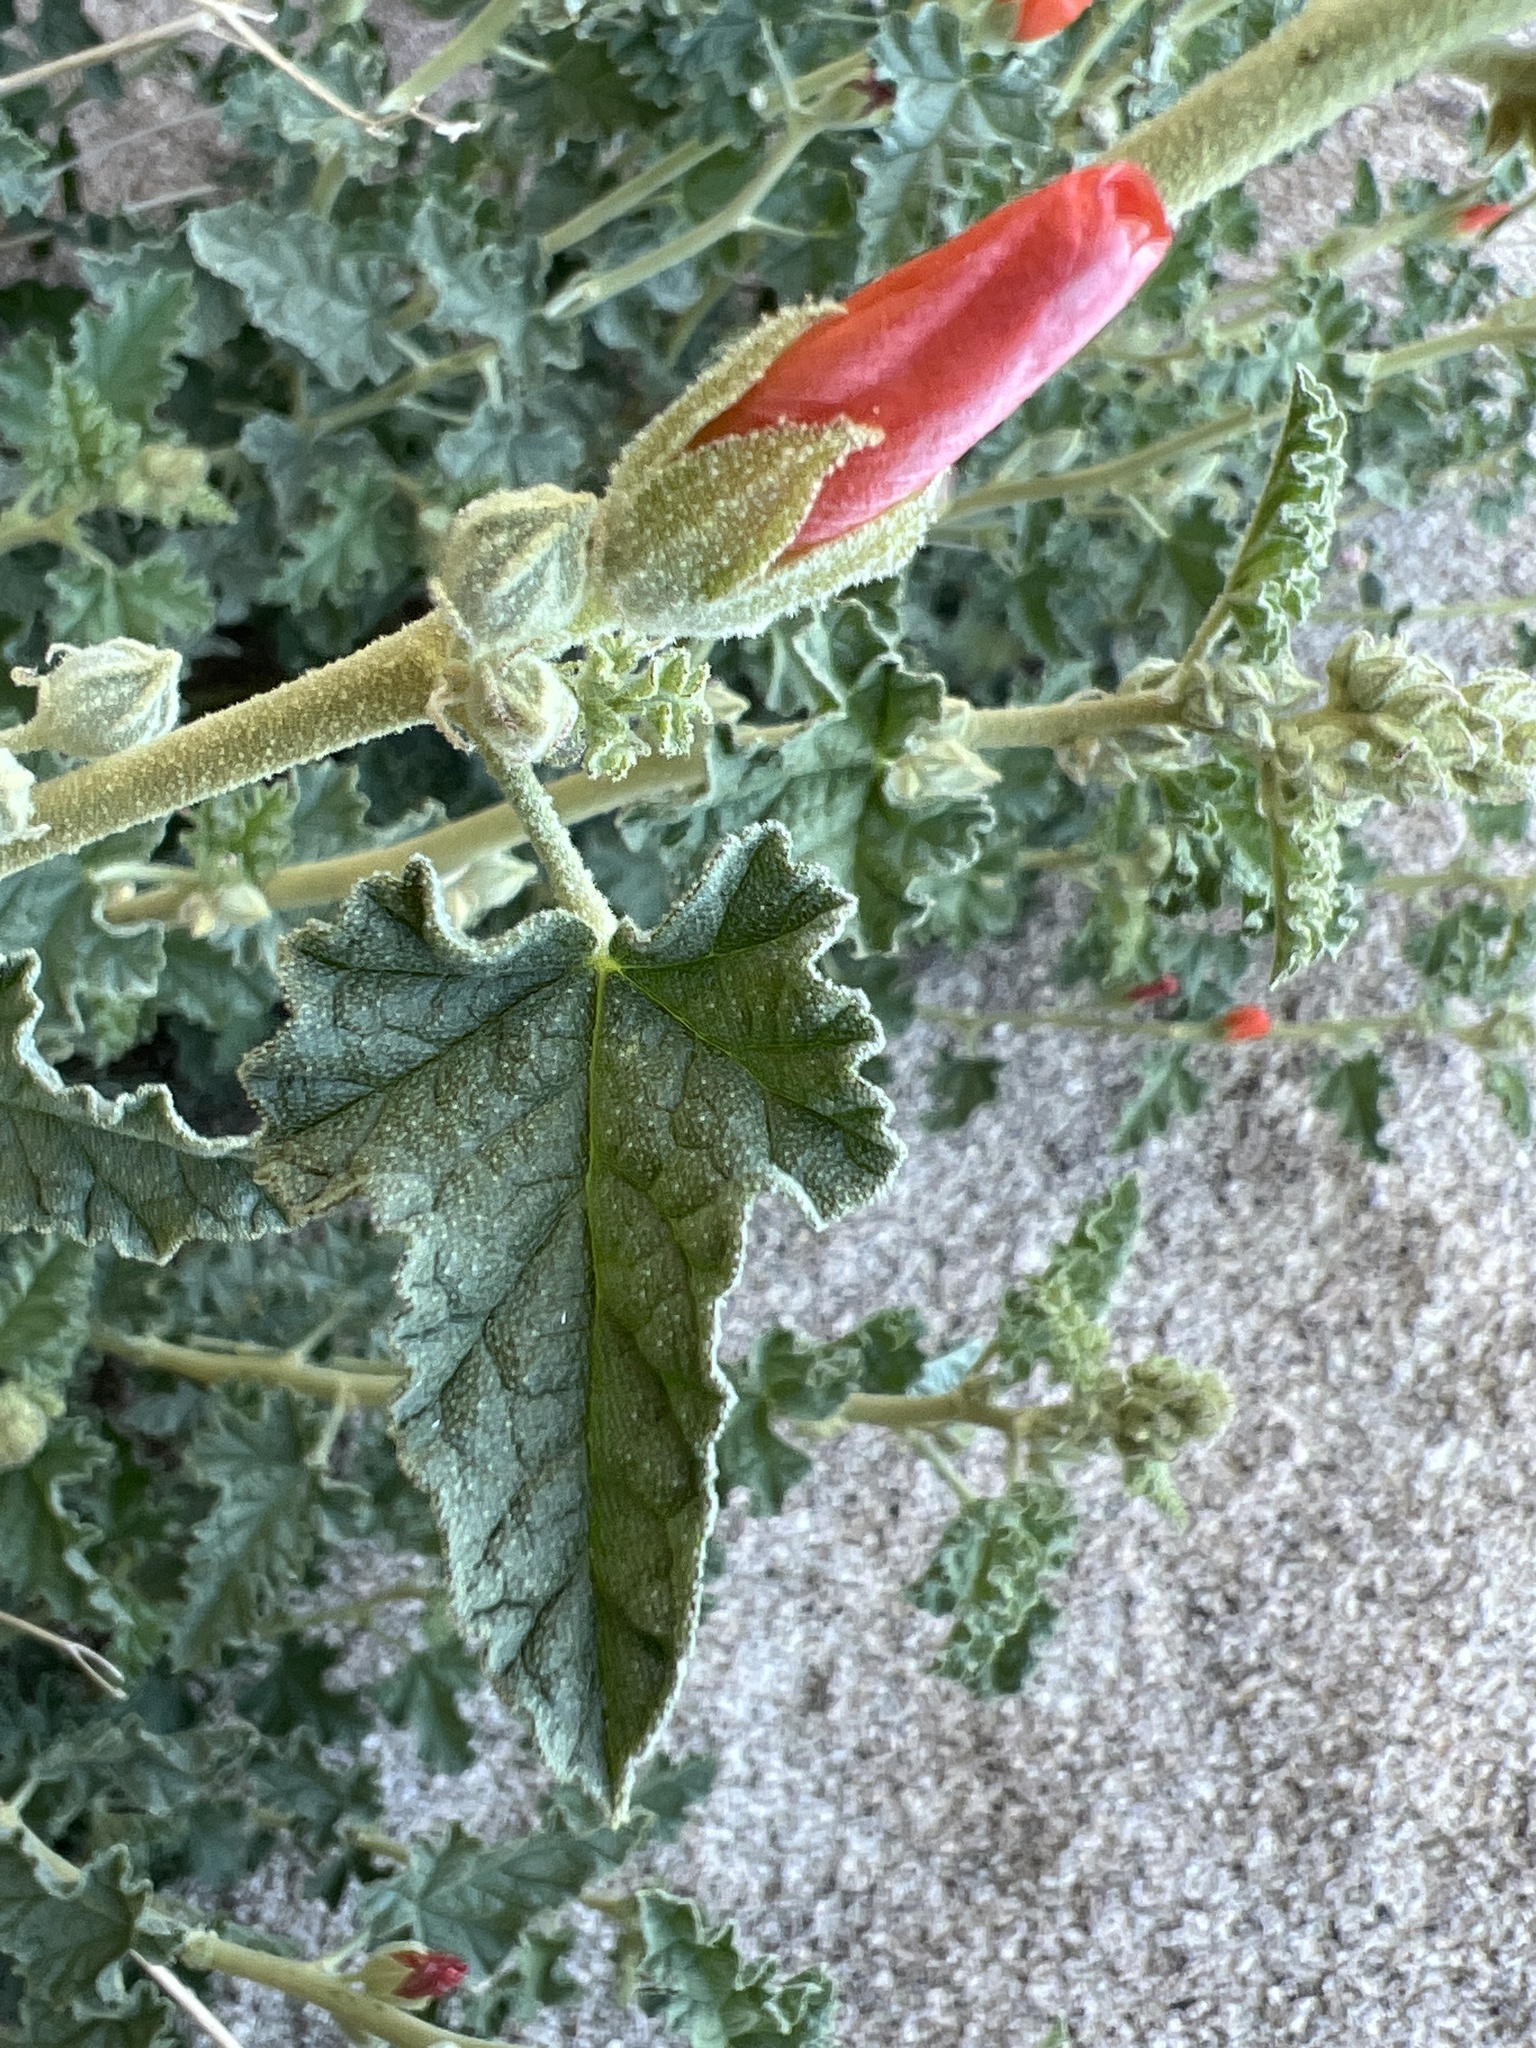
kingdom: Plantae
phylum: Tracheophyta
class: Magnoliopsida
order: Malvales
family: Malvaceae
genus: Sphaeralcea
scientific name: Sphaeralcea ambigua
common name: Apricot globe-mallow
